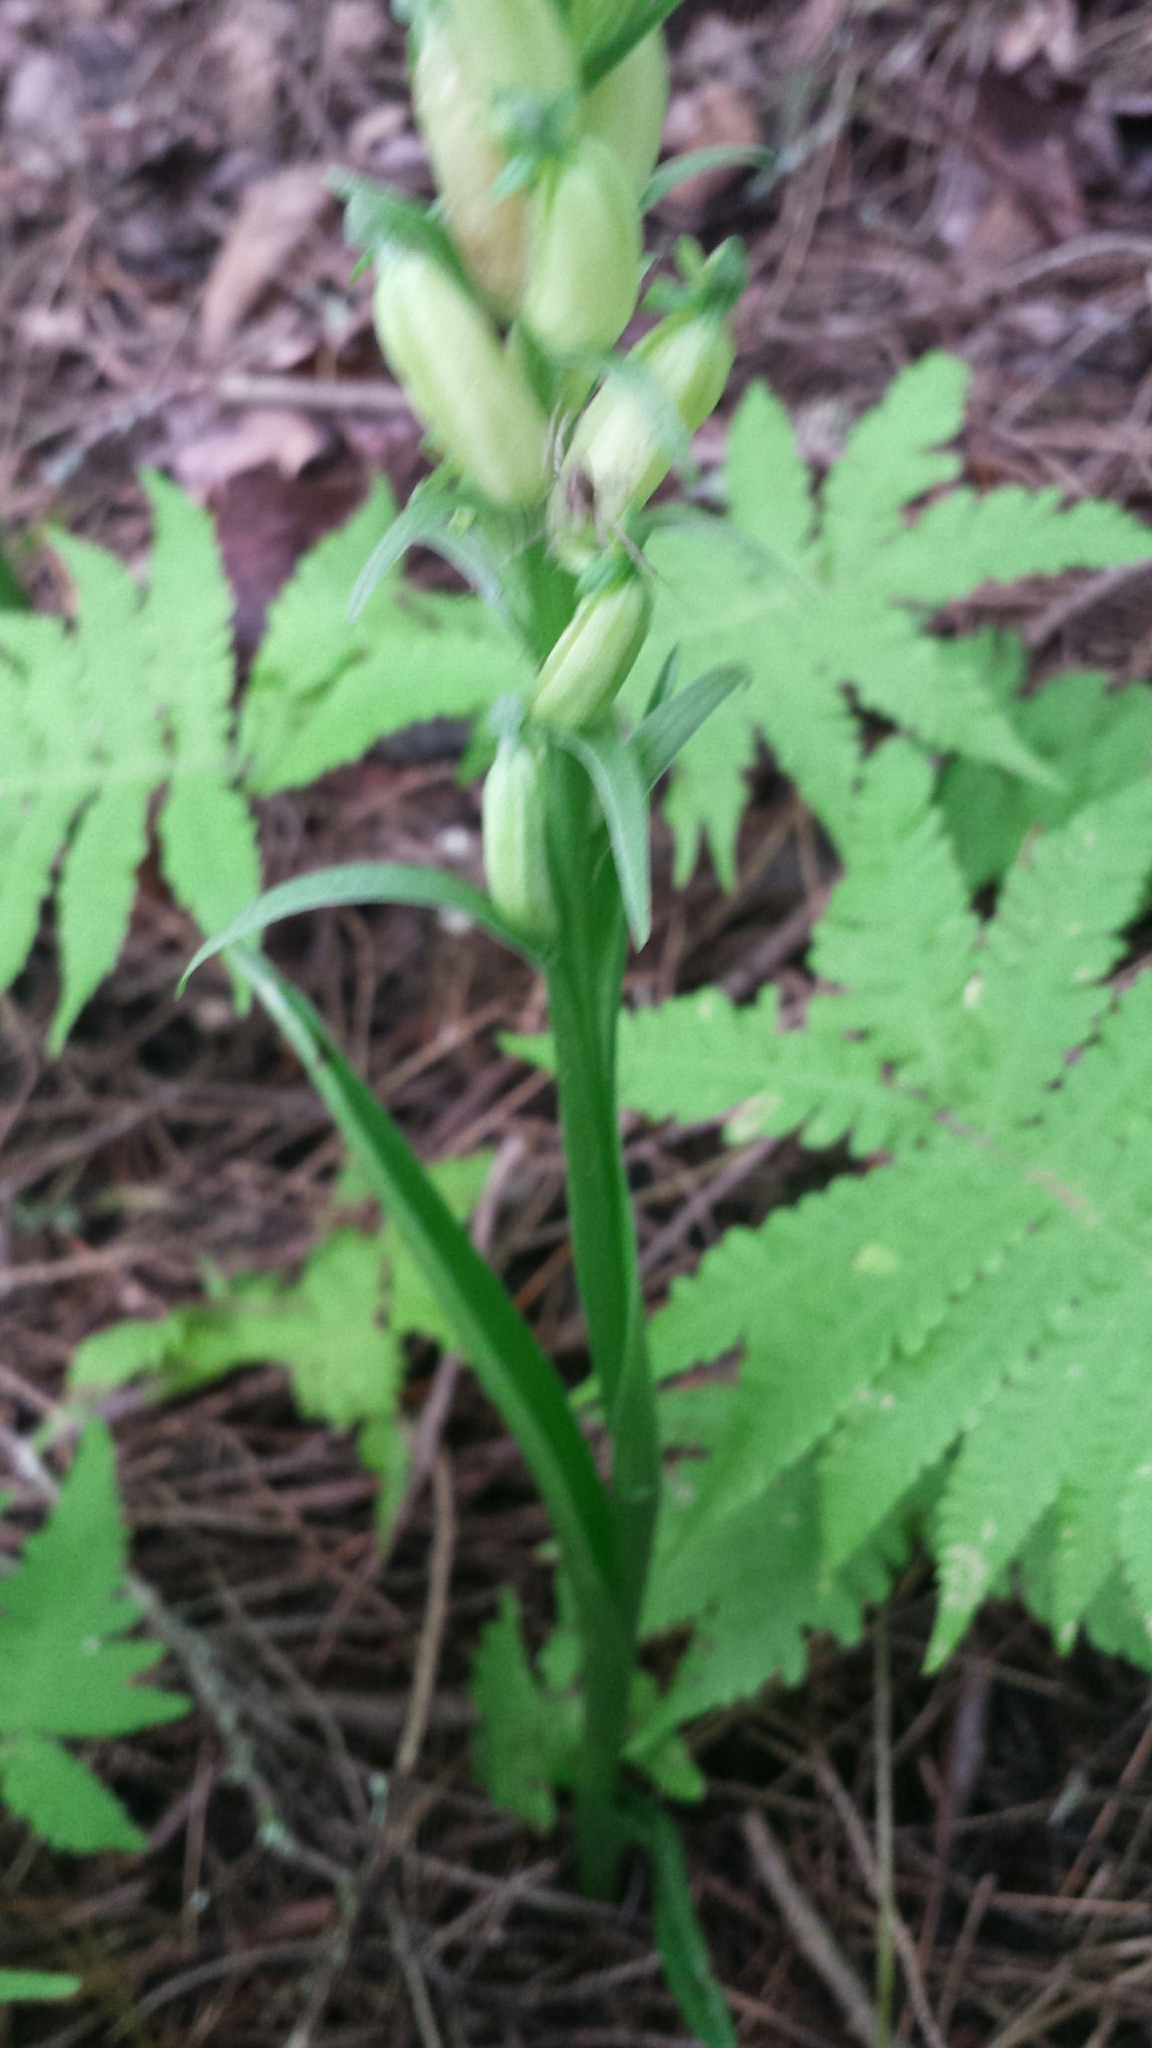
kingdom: Plantae
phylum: Tracheophyta
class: Liliopsida
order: Asparagales
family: Orchidaceae
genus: Platanthera
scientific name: Platanthera aquilonis
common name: Northern green orchid
